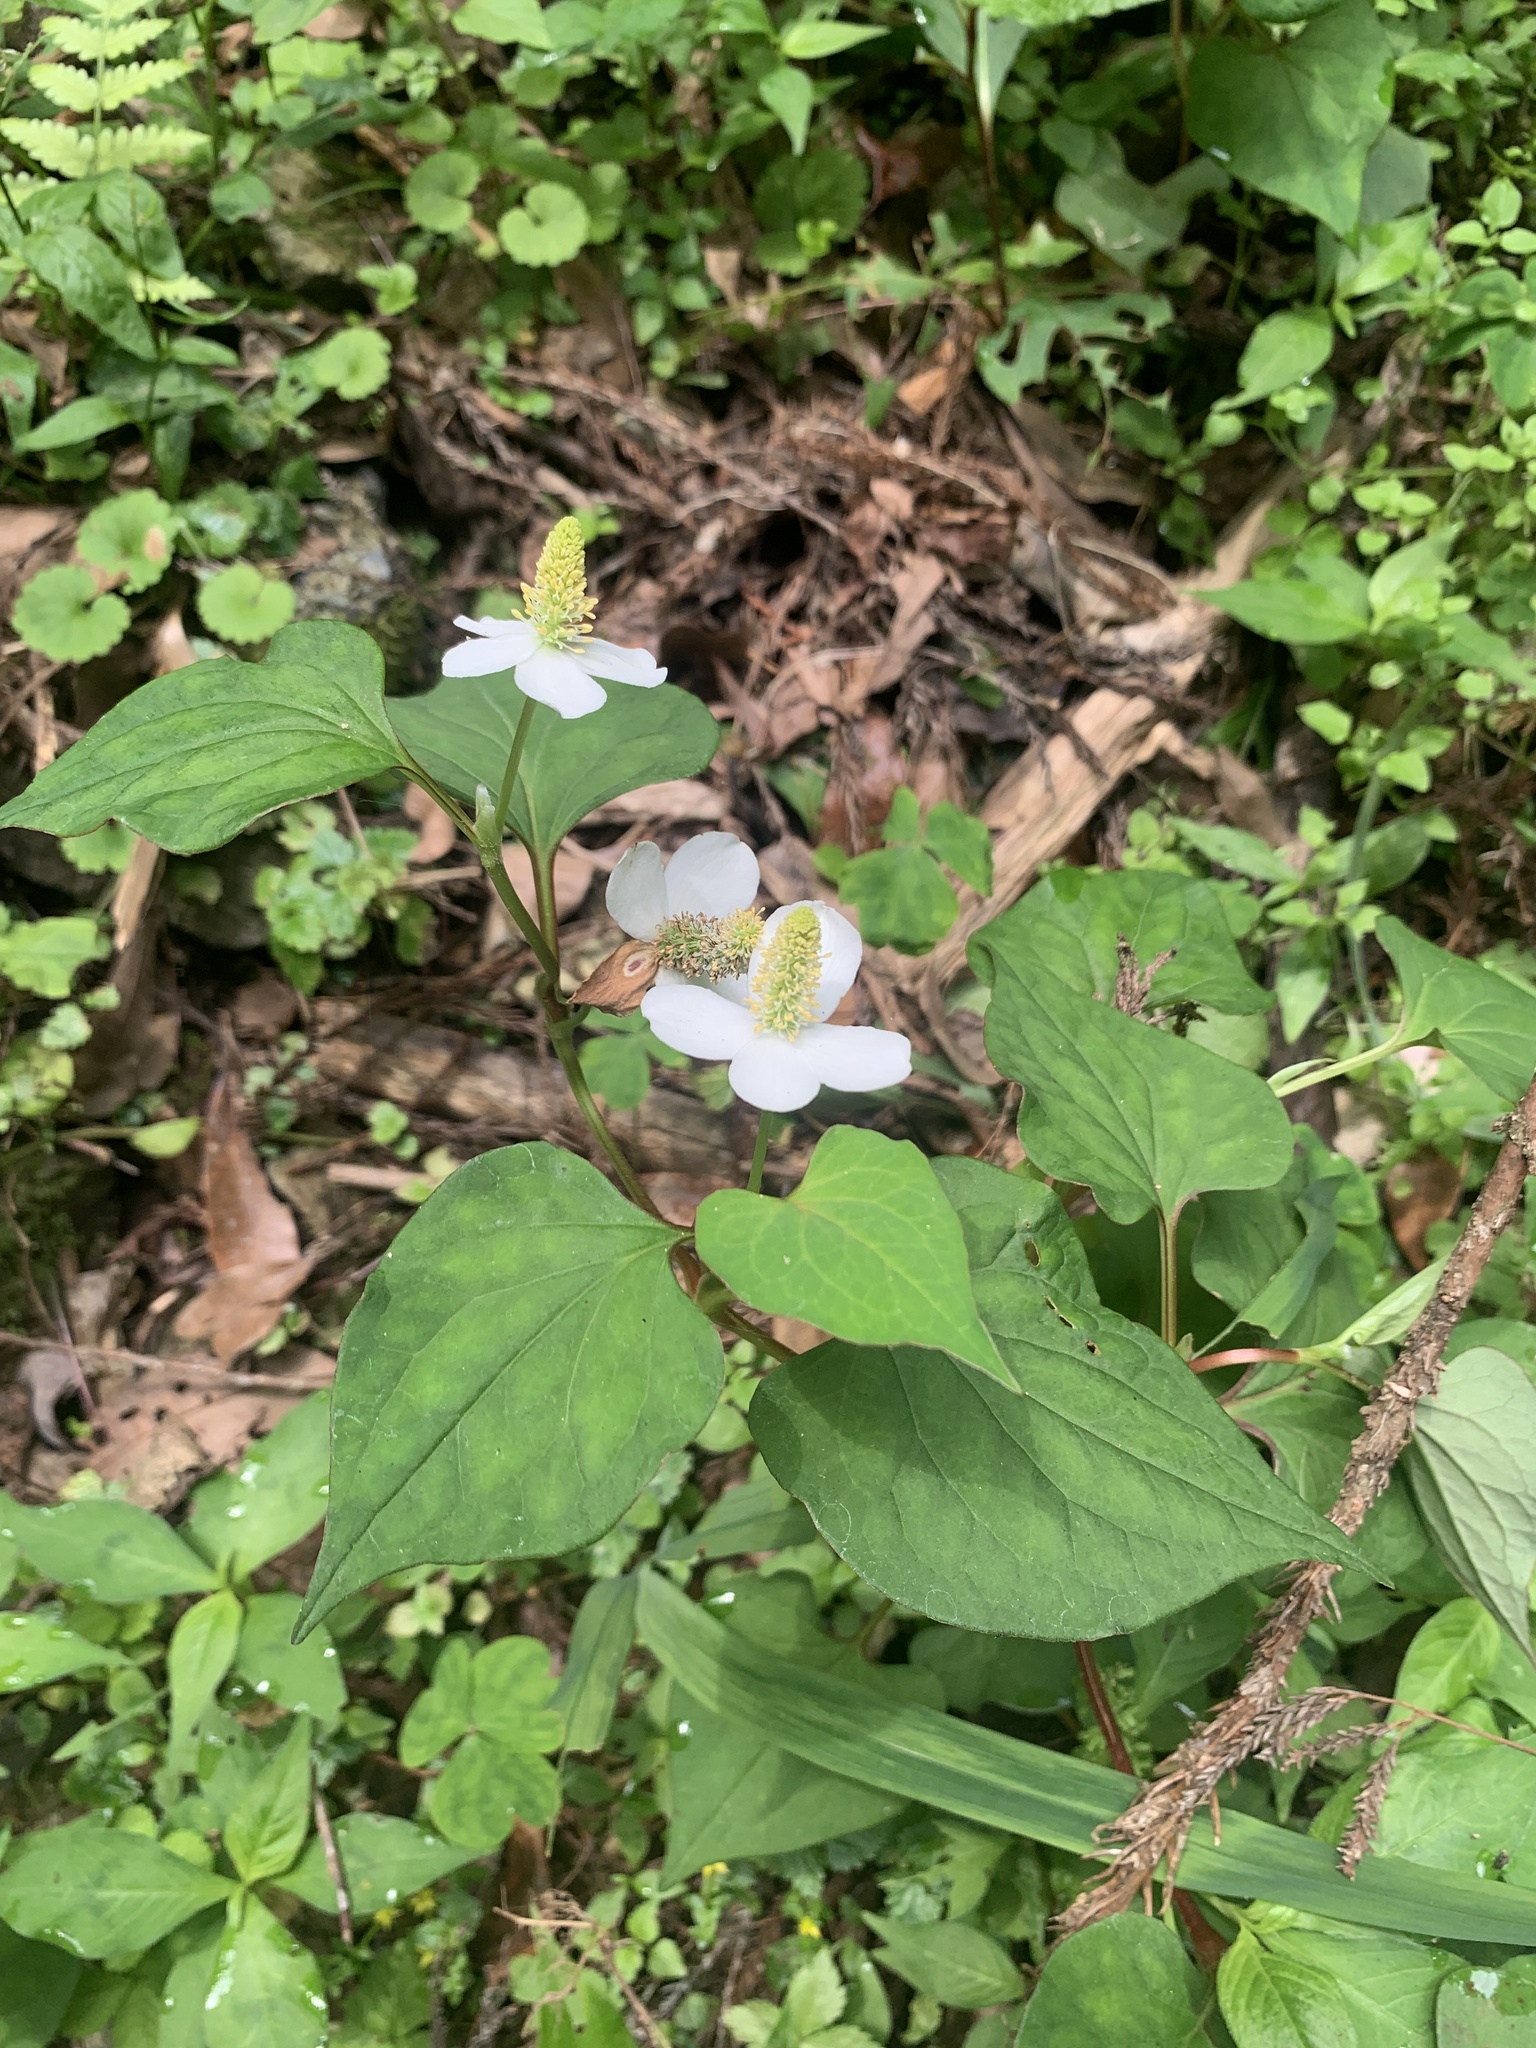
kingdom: Plantae
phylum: Tracheophyta
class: Magnoliopsida
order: Piperales
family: Saururaceae
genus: Houttuynia
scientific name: Houttuynia cordata
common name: Chameleon
